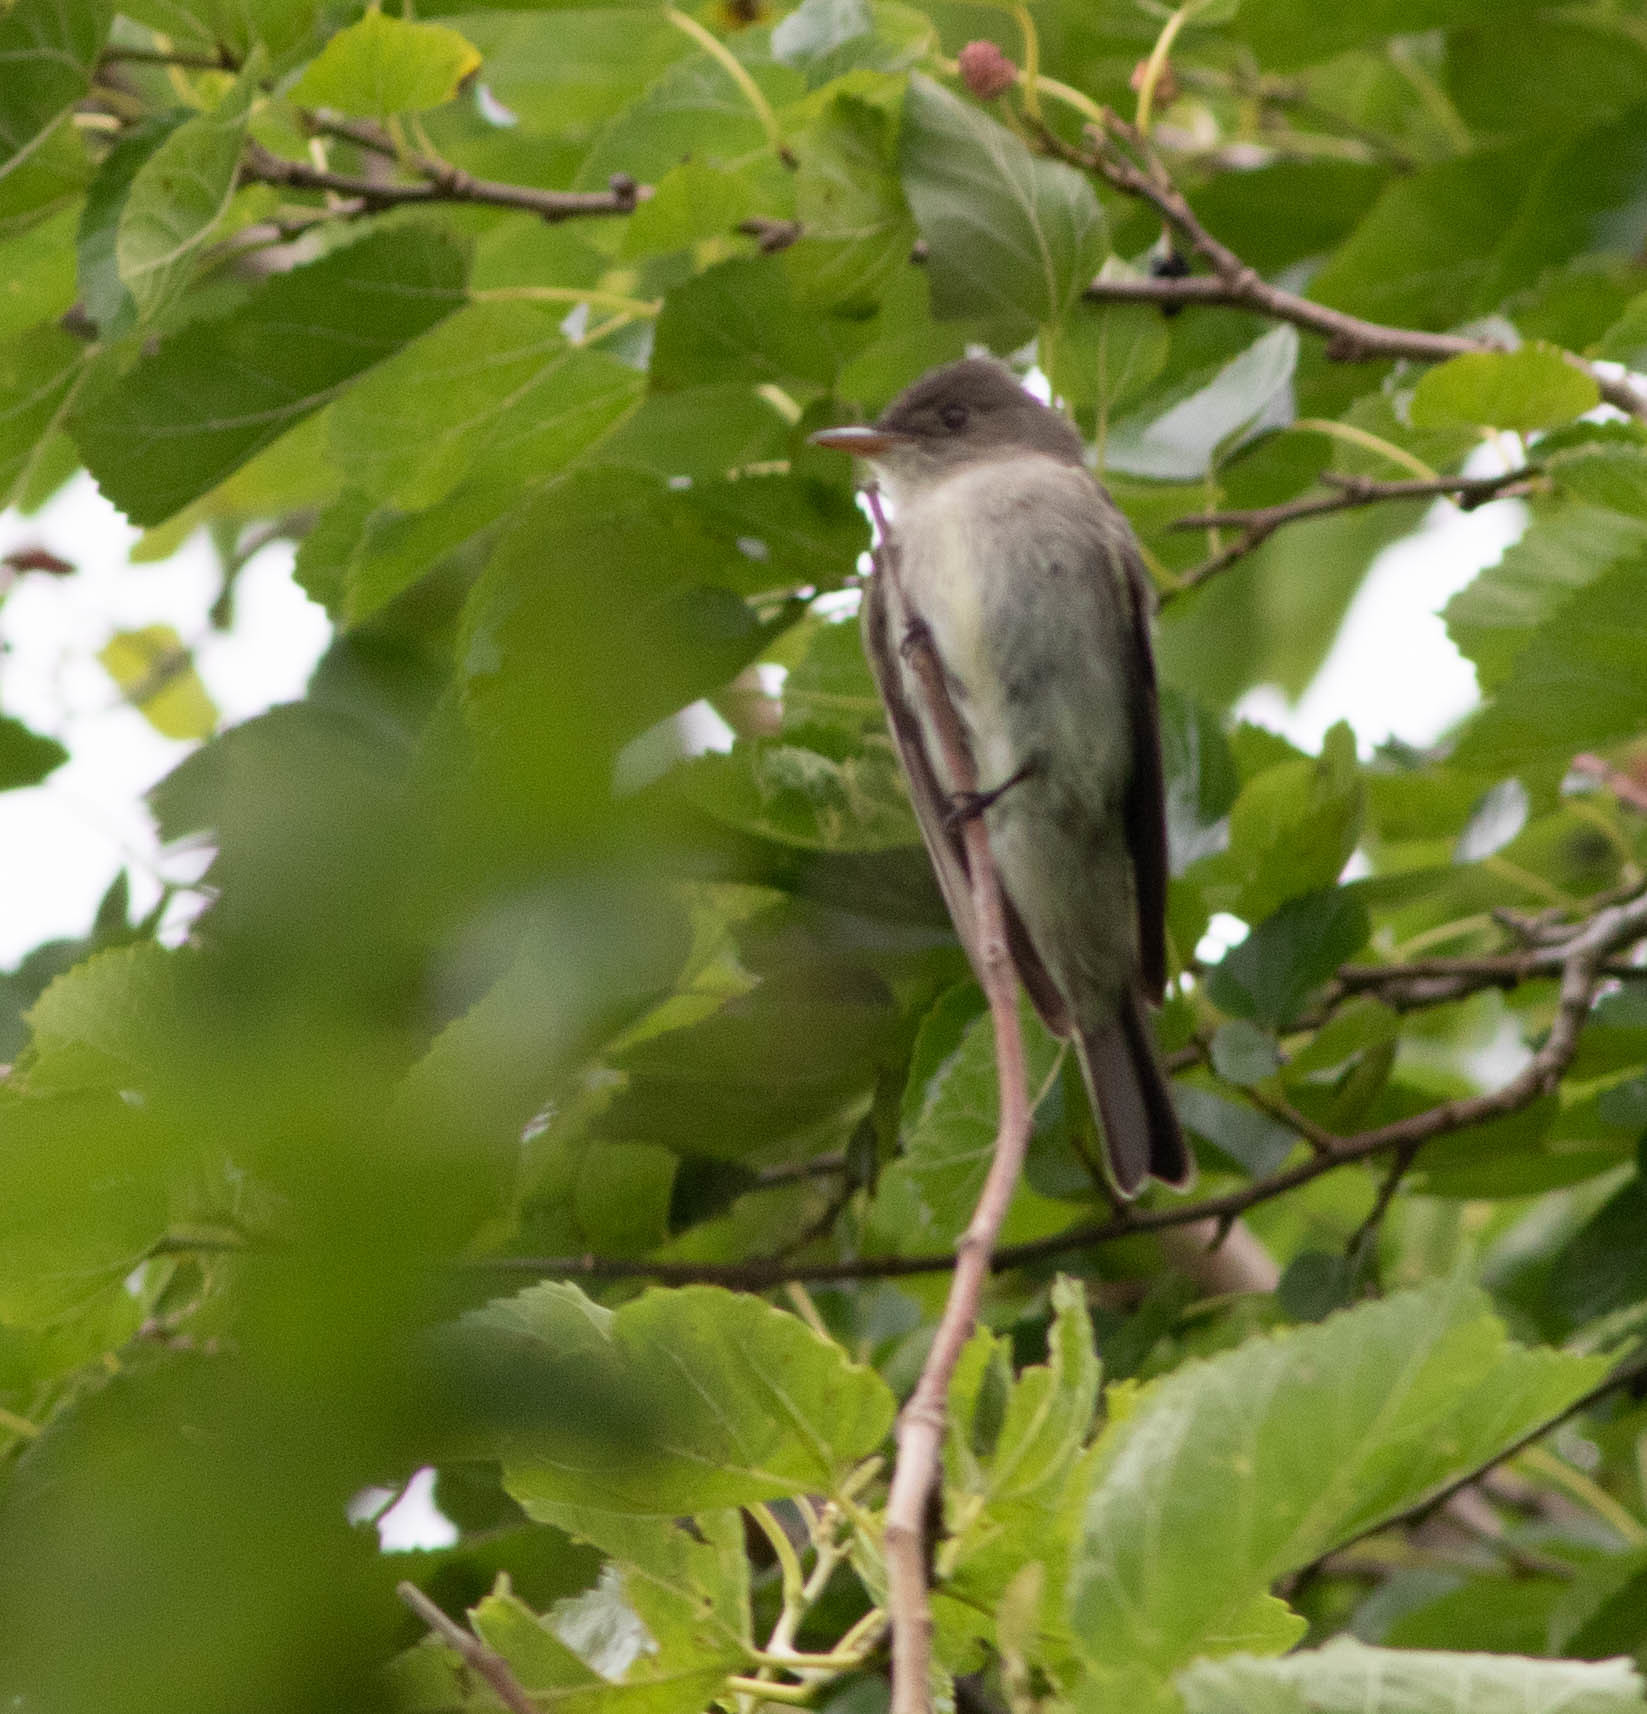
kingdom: Animalia
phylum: Chordata
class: Aves
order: Passeriformes
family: Tyrannidae
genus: Contopus
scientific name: Contopus virens
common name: Eastern wood-pewee
